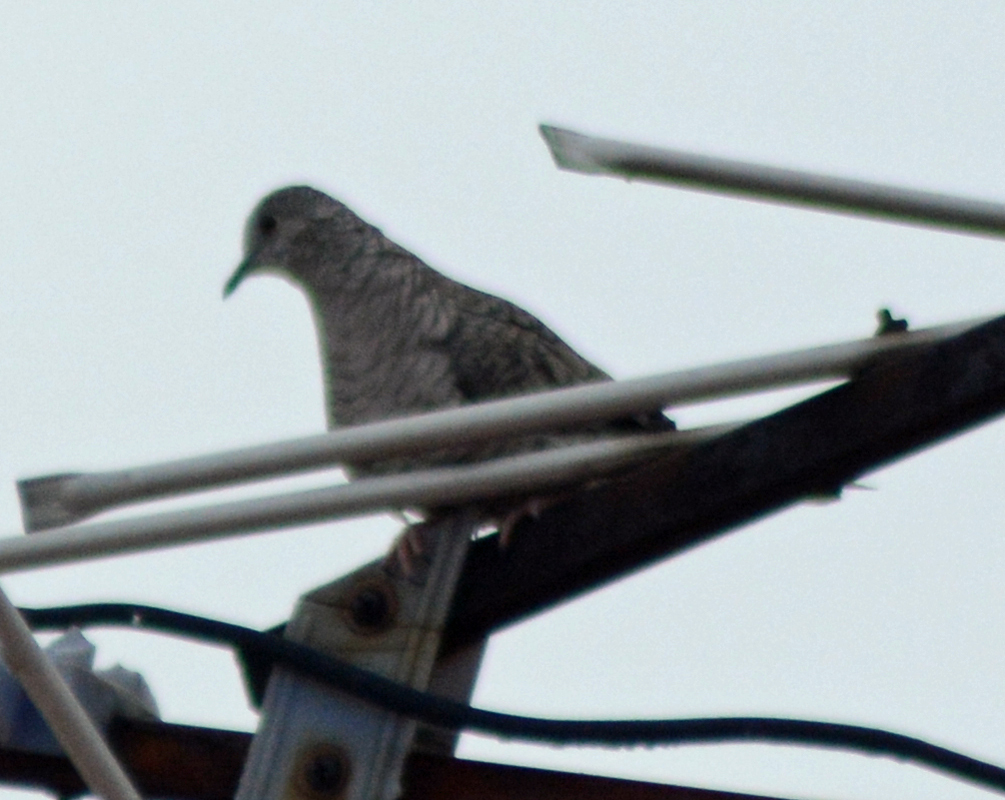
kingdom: Animalia
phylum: Chordata
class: Aves
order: Columbiformes
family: Columbidae
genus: Columbina
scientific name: Columbina inca
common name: Inca dove
